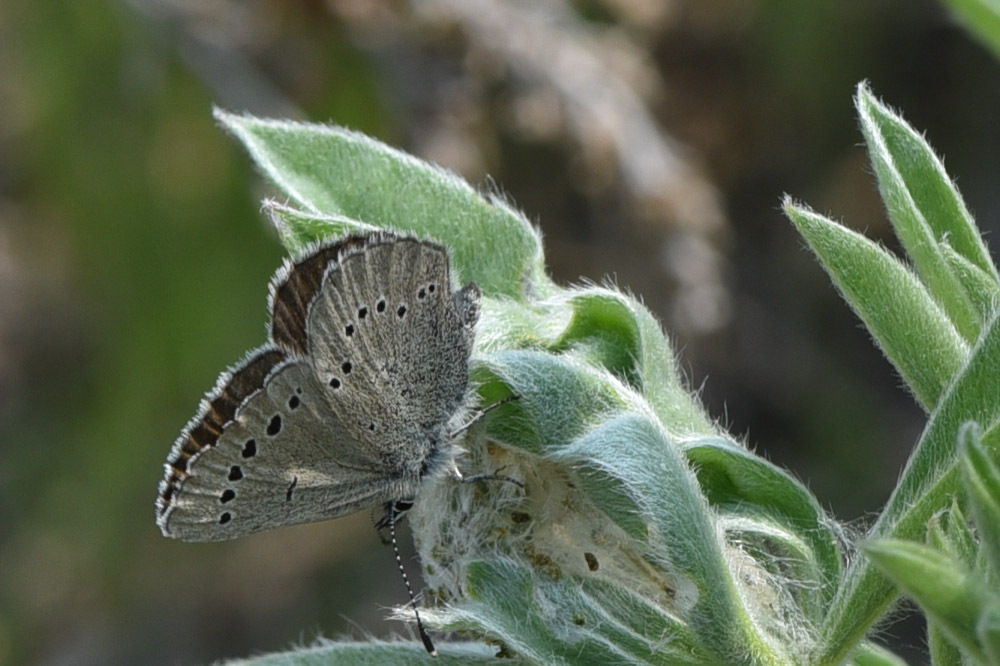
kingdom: Animalia
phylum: Arthropoda
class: Insecta
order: Lepidoptera
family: Lycaenidae
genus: Glaucopsyche
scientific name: Glaucopsyche lygdamus
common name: Silvery blue
